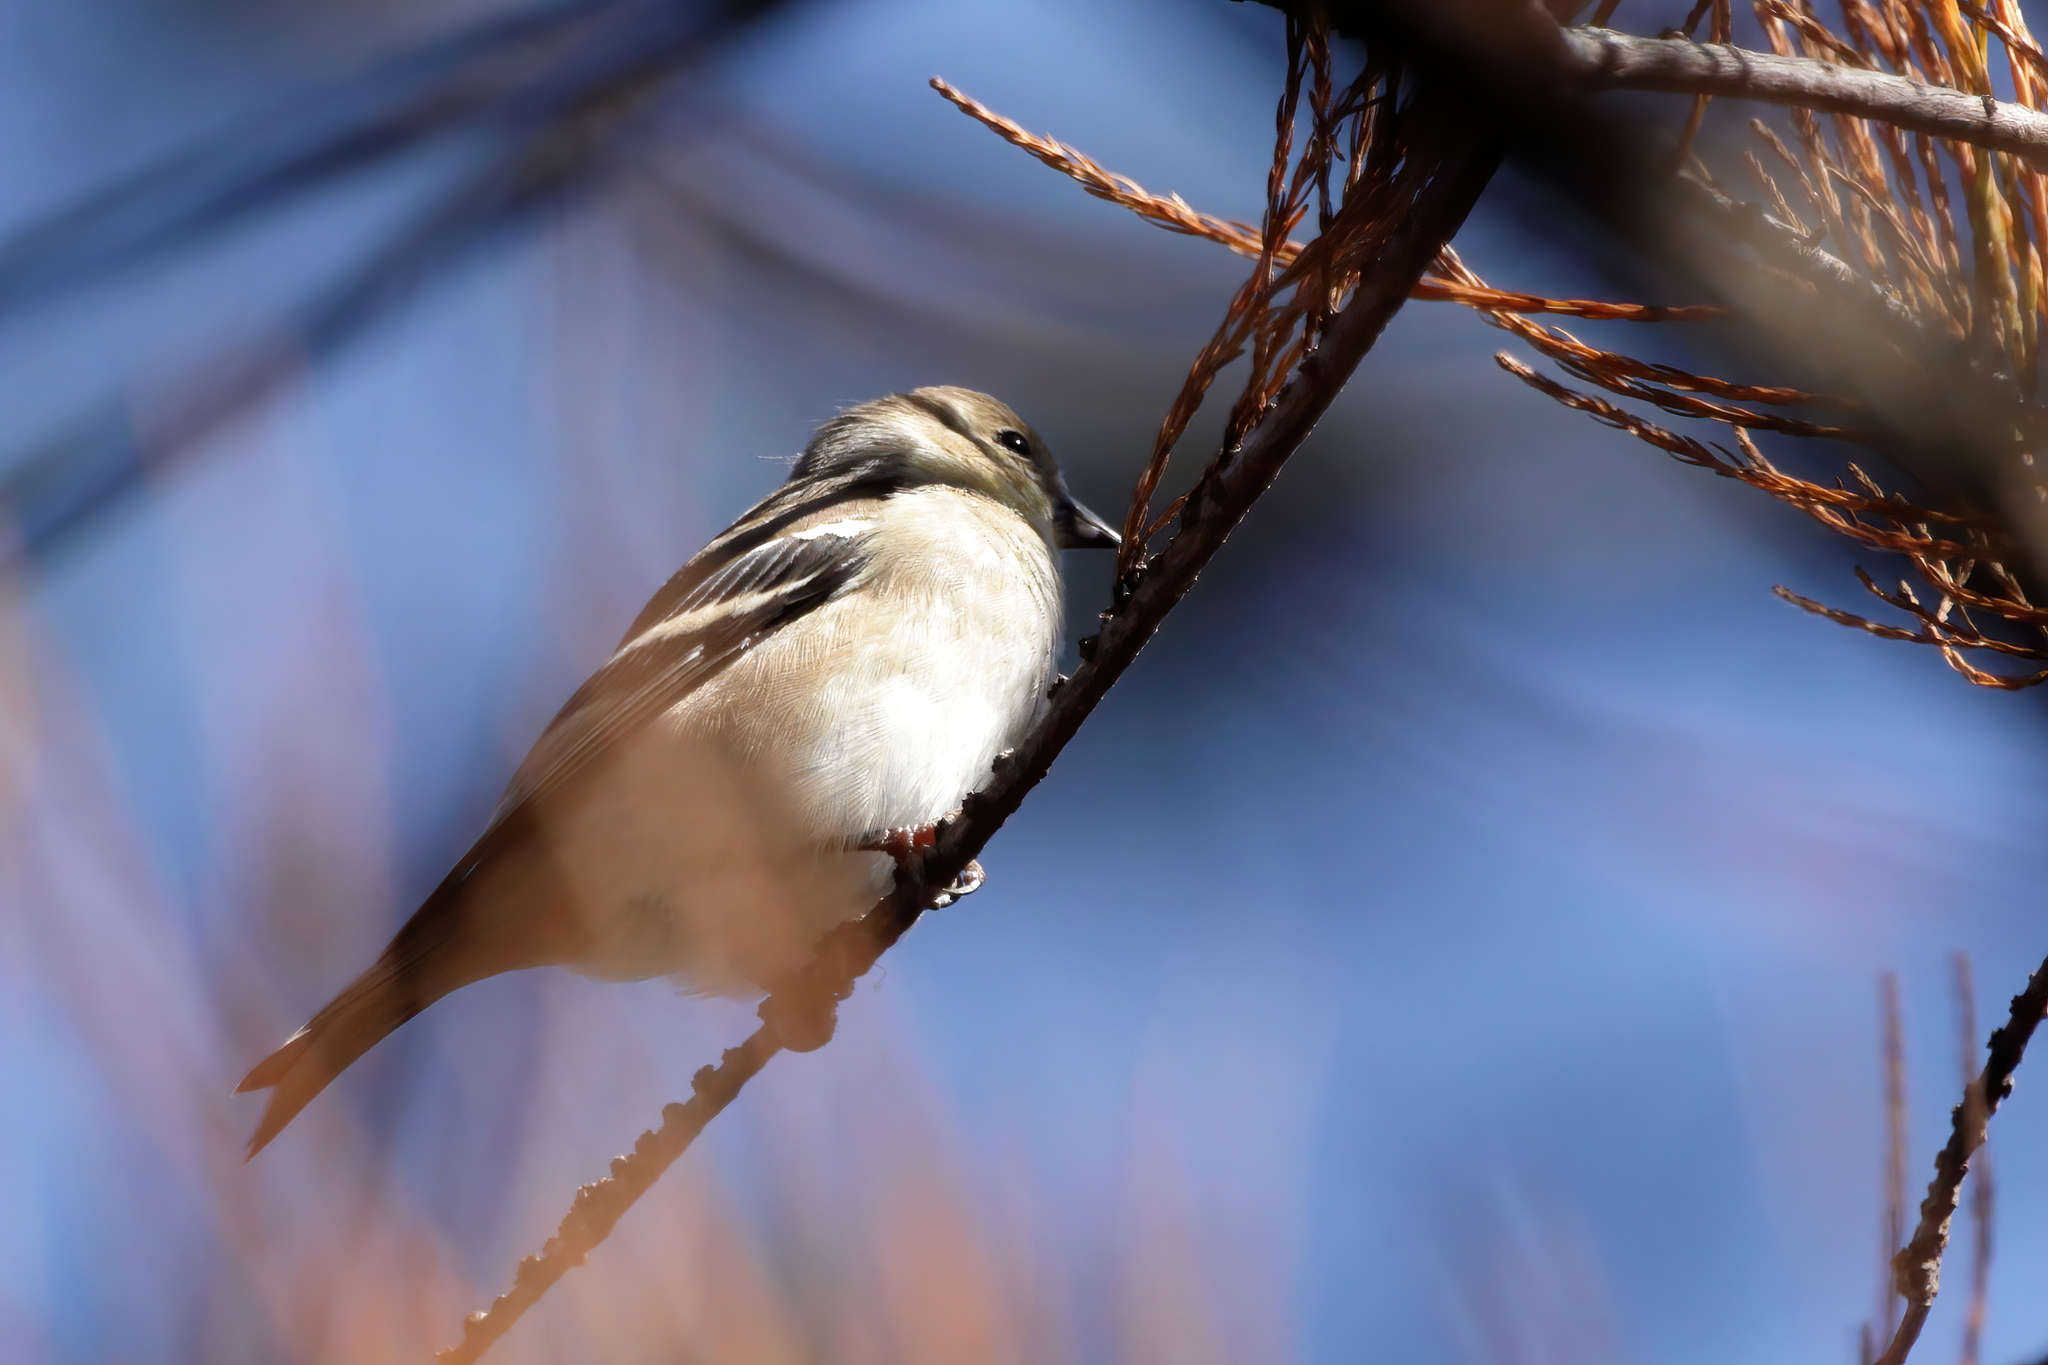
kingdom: Animalia
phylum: Chordata
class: Aves
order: Passeriformes
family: Fringillidae
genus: Spinus
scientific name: Spinus tristis
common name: American goldfinch
